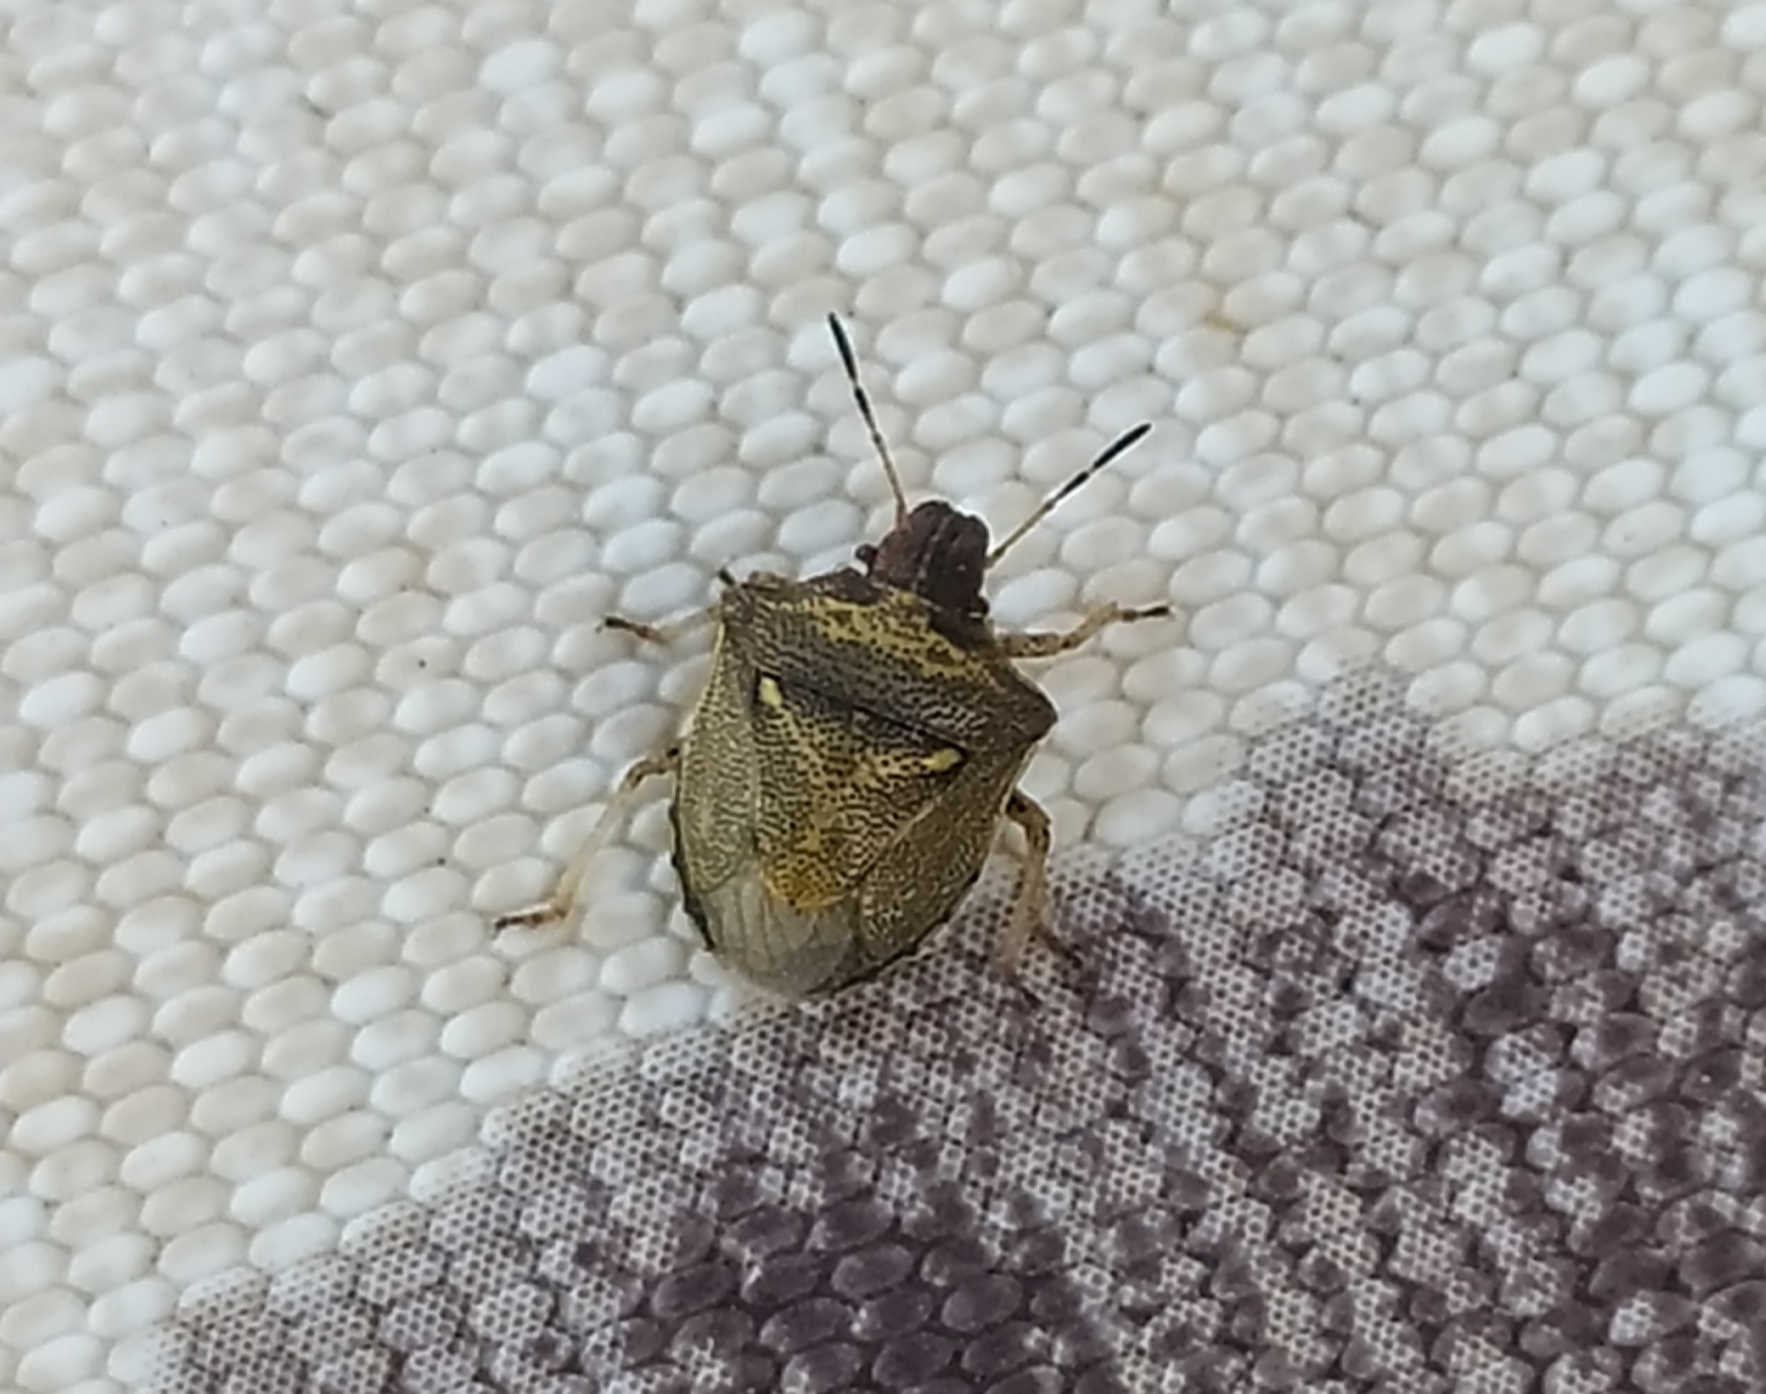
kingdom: Animalia
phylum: Arthropoda
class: Insecta
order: Hemiptera
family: Pentatomidae
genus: Eysarcoris
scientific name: Eysarcoris aeneus
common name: New forest shieldbug
